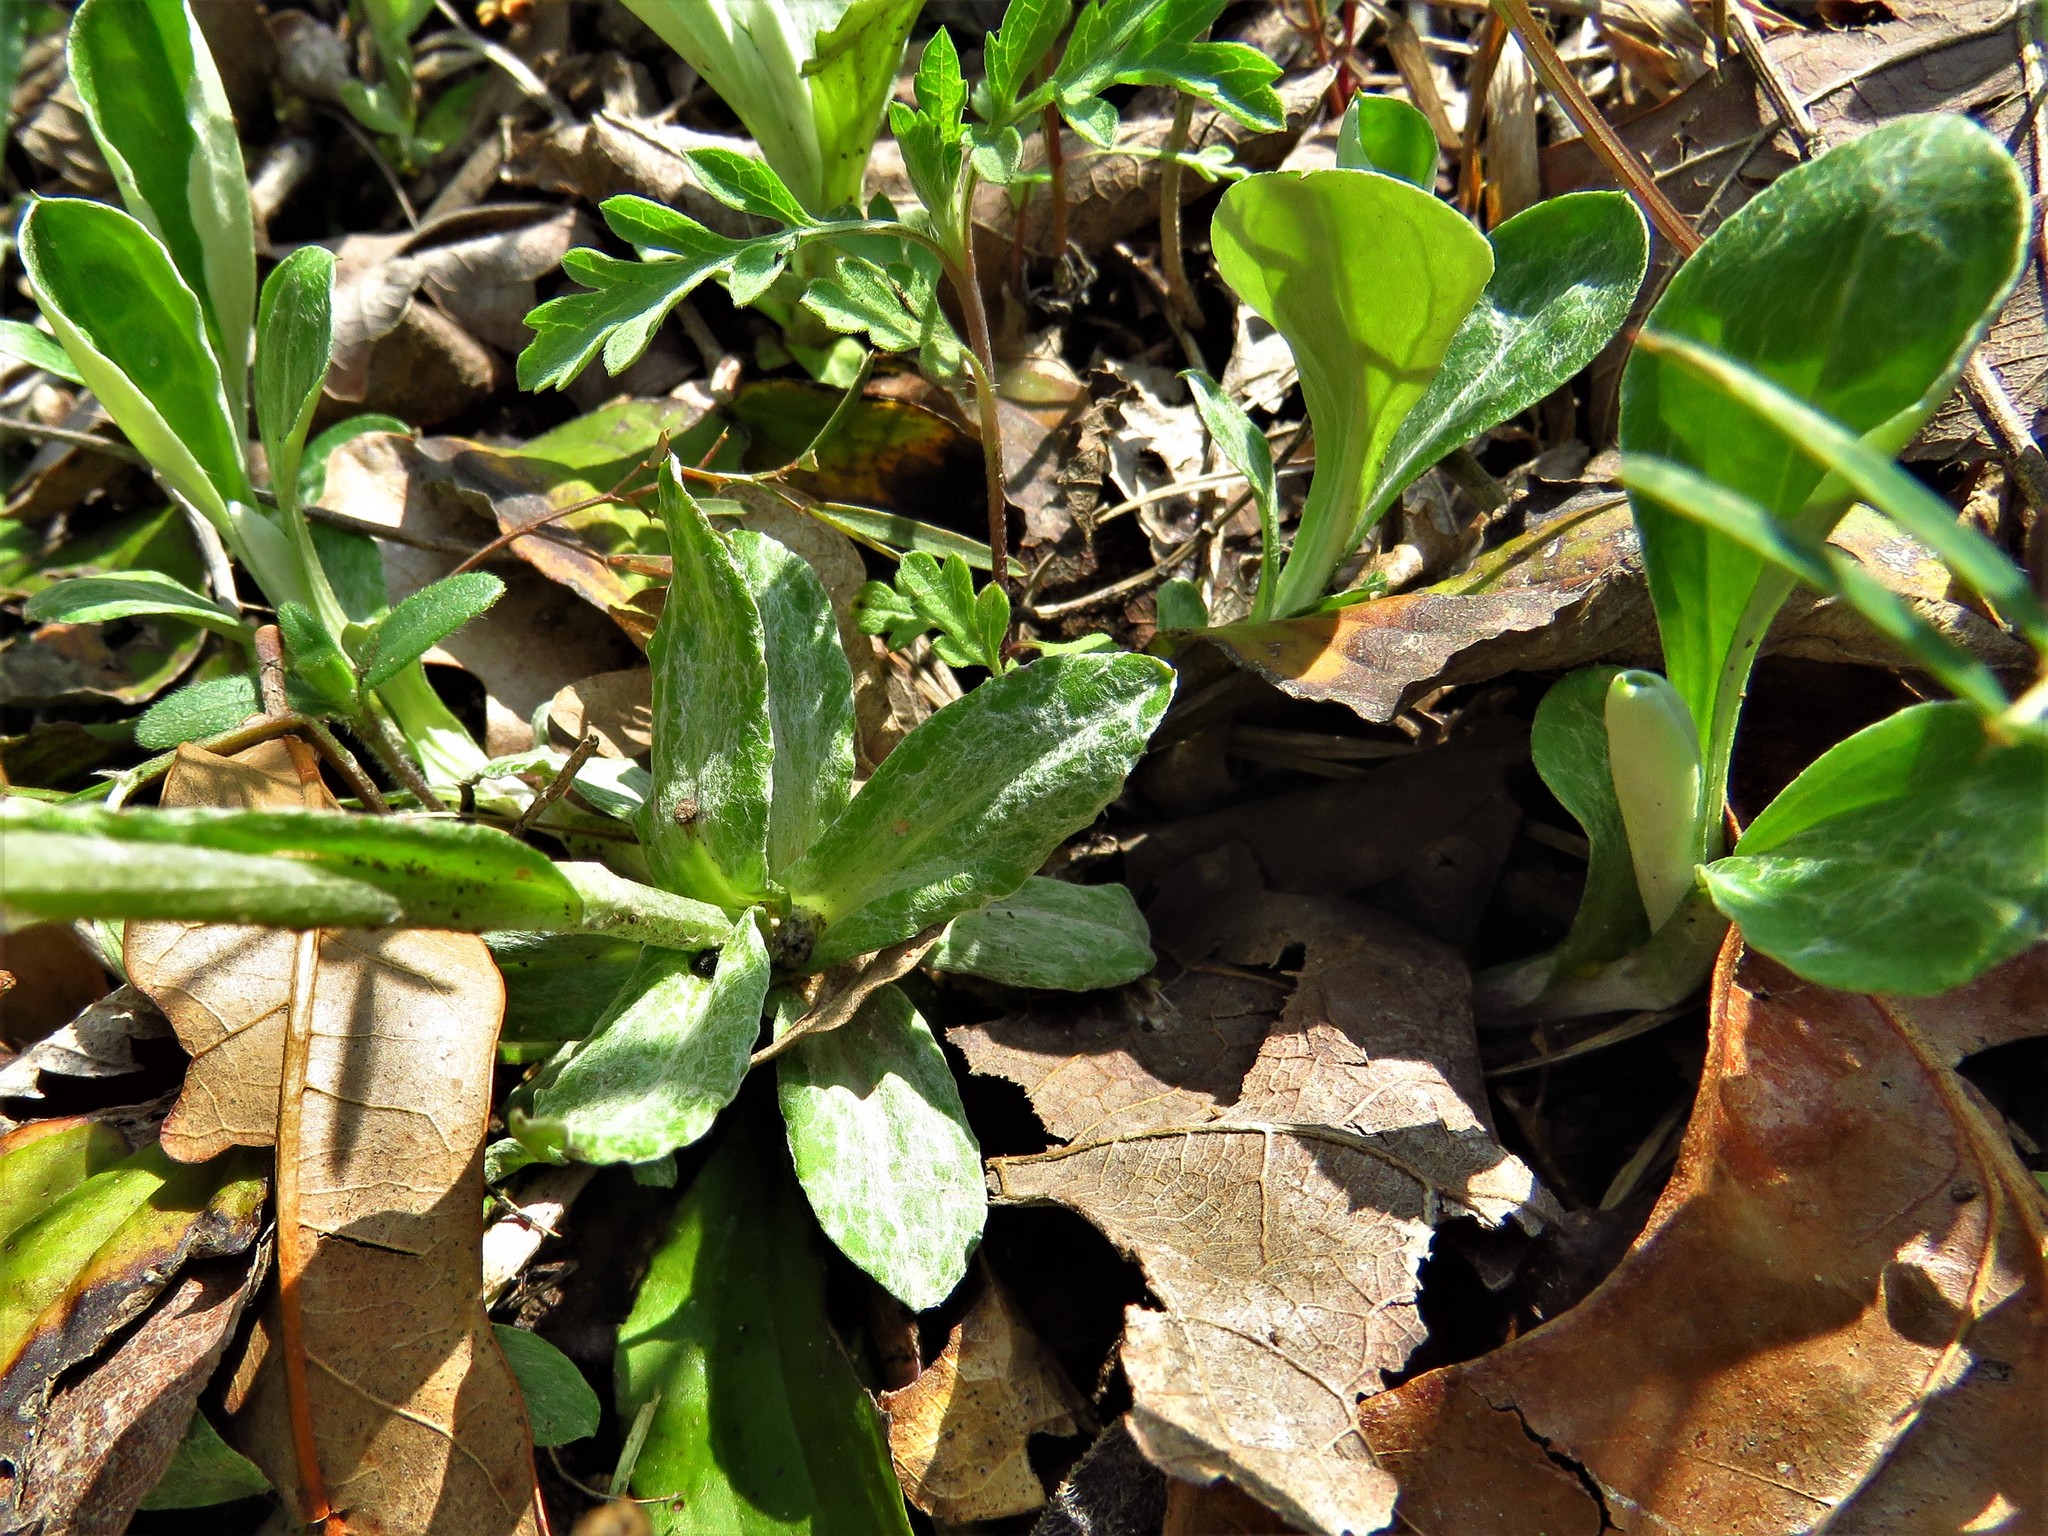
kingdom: Plantae
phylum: Tracheophyta
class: Magnoliopsida
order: Asterales
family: Asteraceae
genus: Antennaria
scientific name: Antennaria parlinii
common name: Parlin's pussytoes
